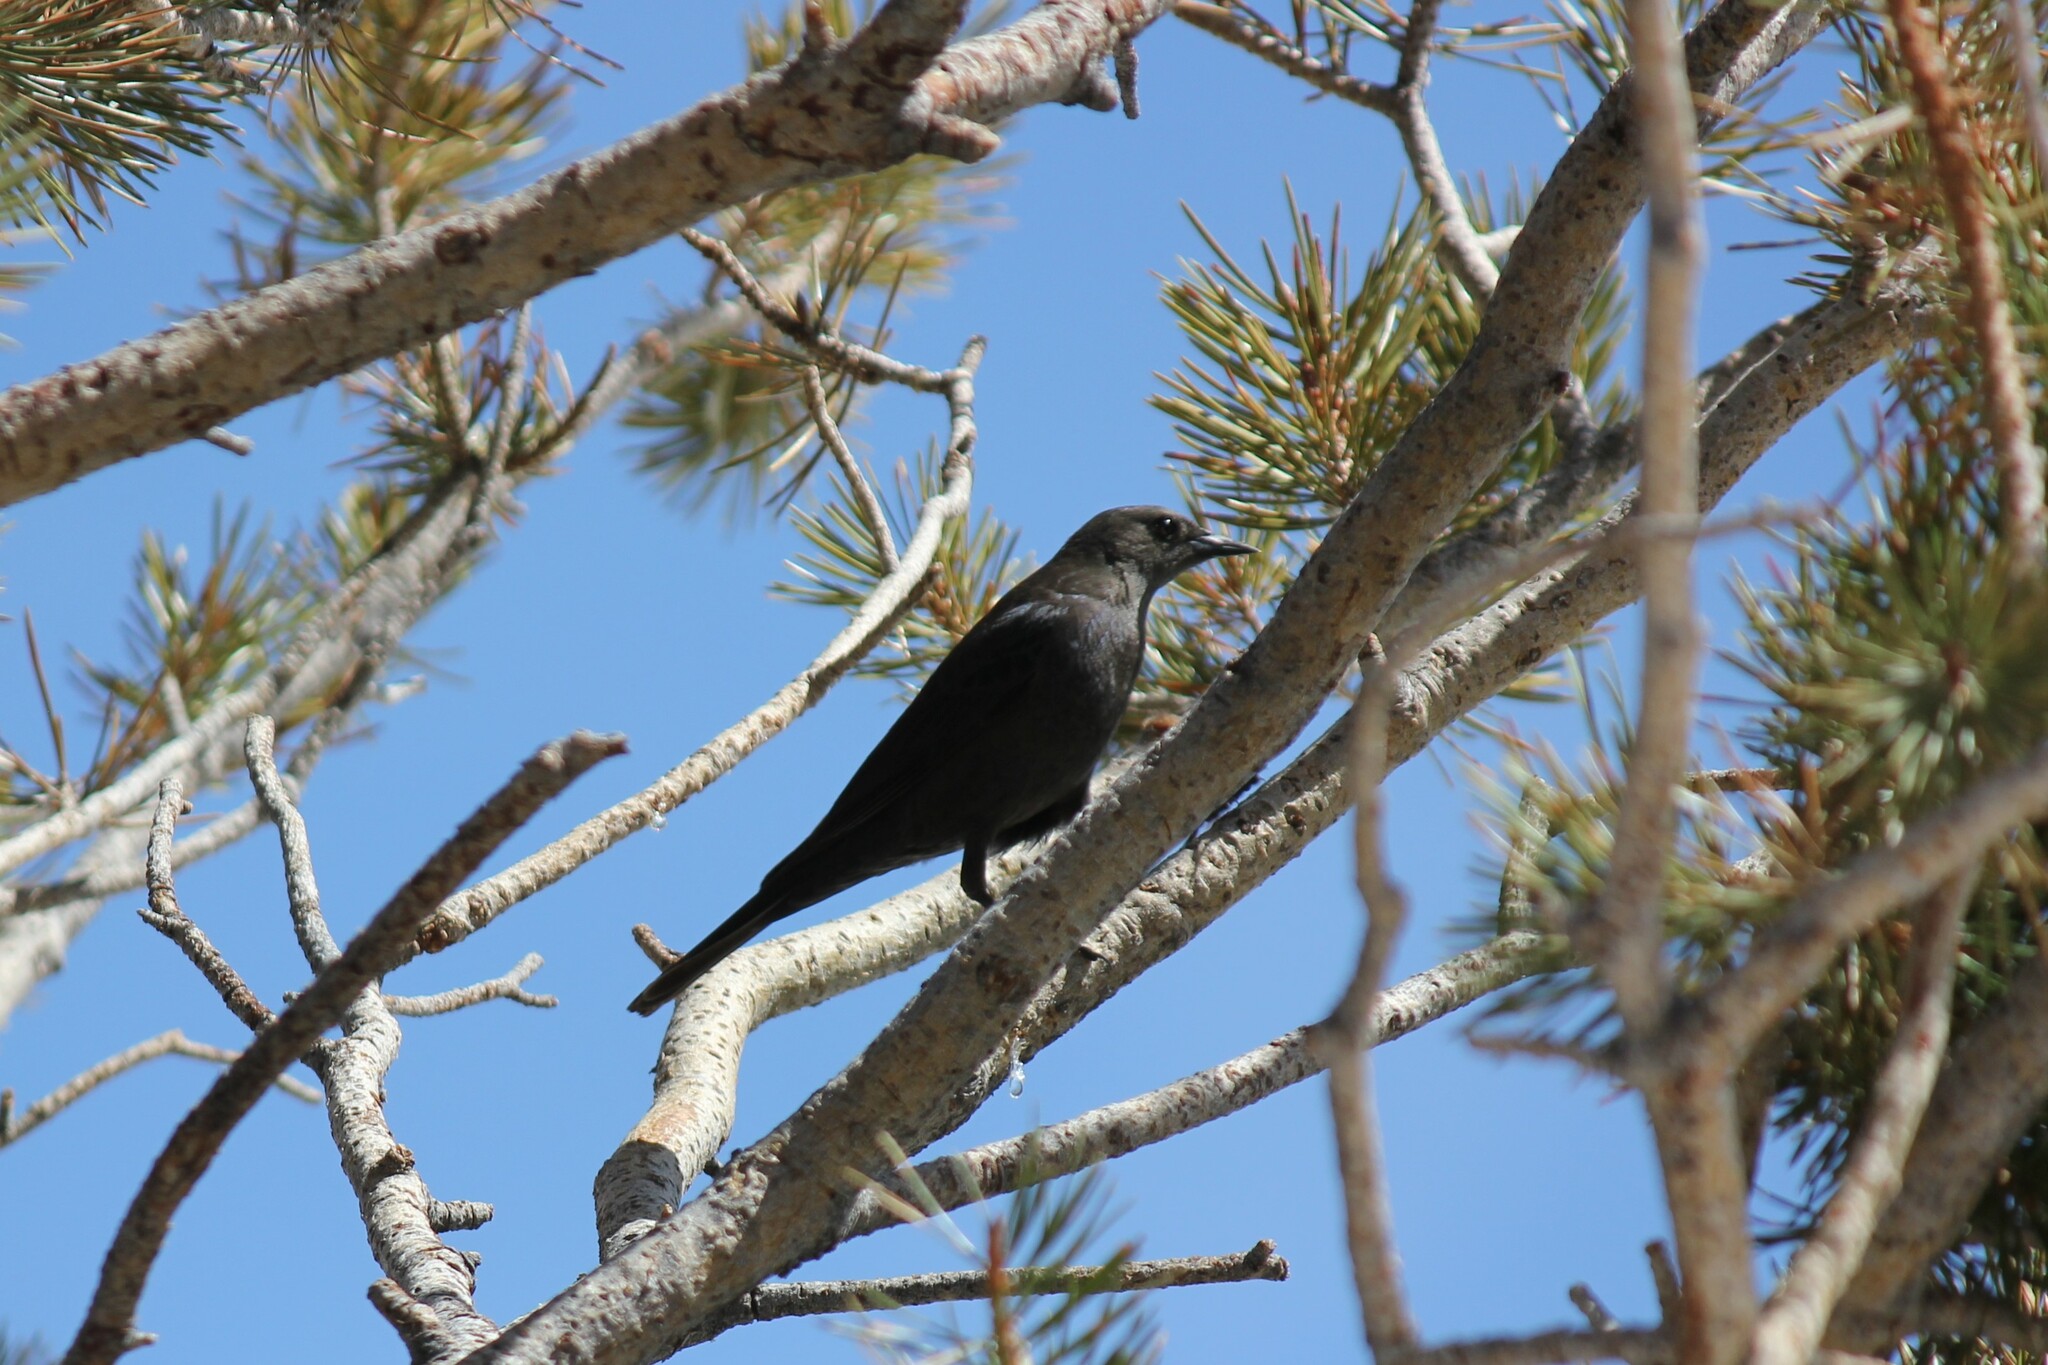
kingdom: Animalia
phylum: Chordata
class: Aves
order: Passeriformes
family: Icteridae
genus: Euphagus
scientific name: Euphagus cyanocephalus
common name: Brewer's blackbird
